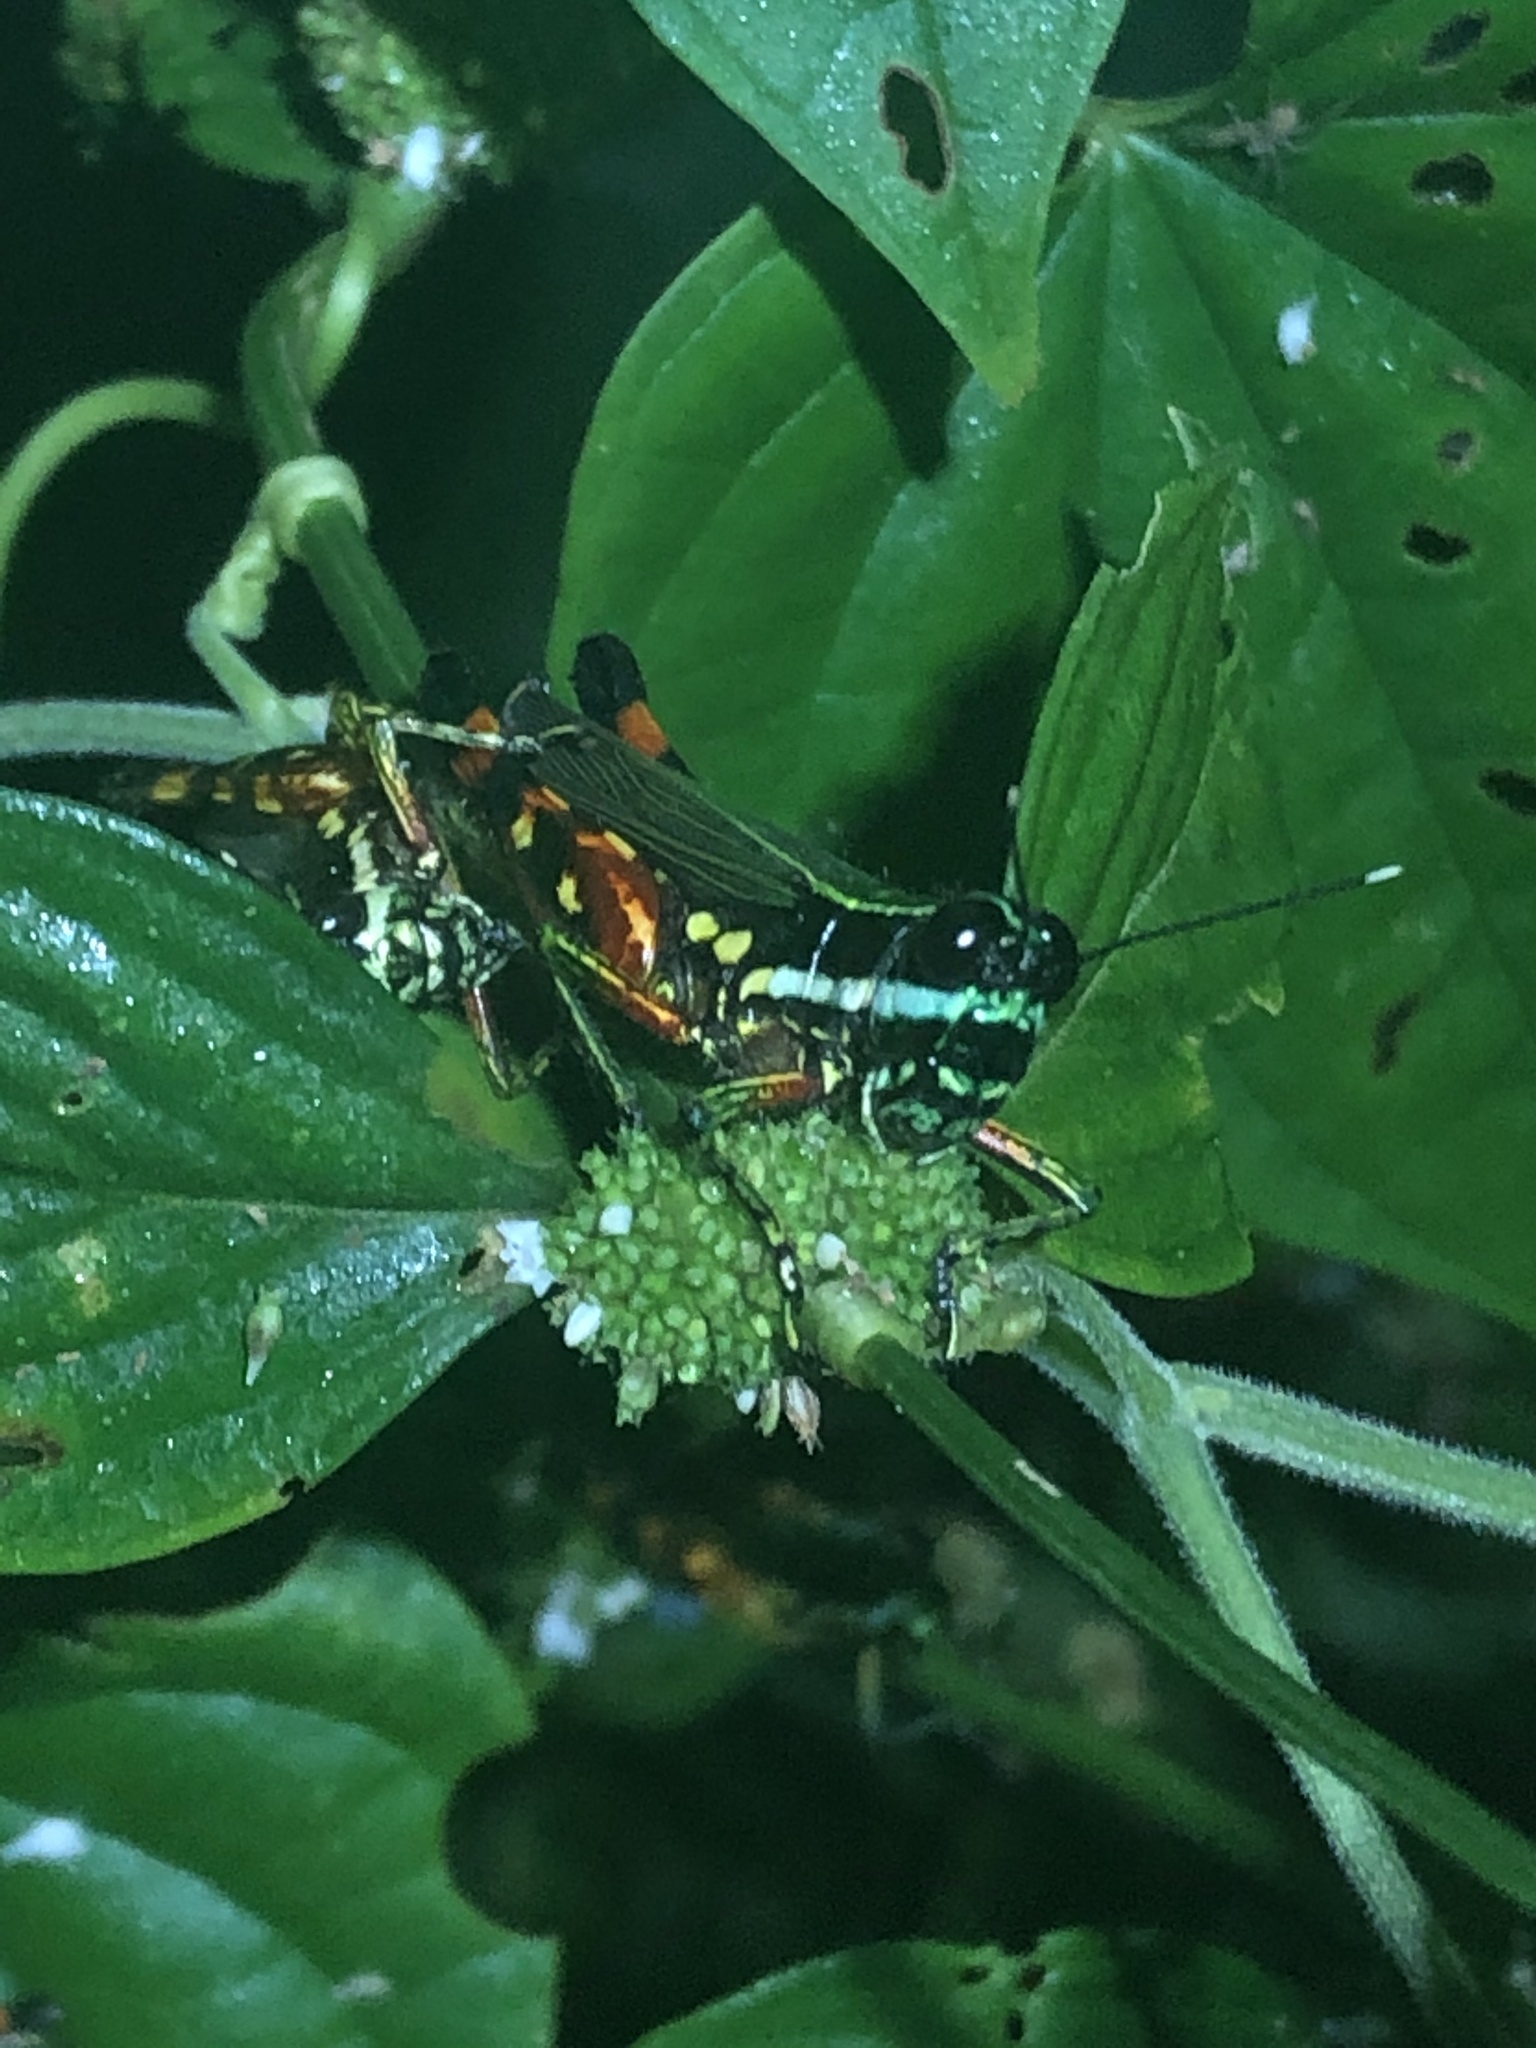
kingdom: Animalia
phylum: Arthropoda
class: Insecta
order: Orthoptera
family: Acrididae
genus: Tetrataenia
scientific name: Tetrataenia surinama
